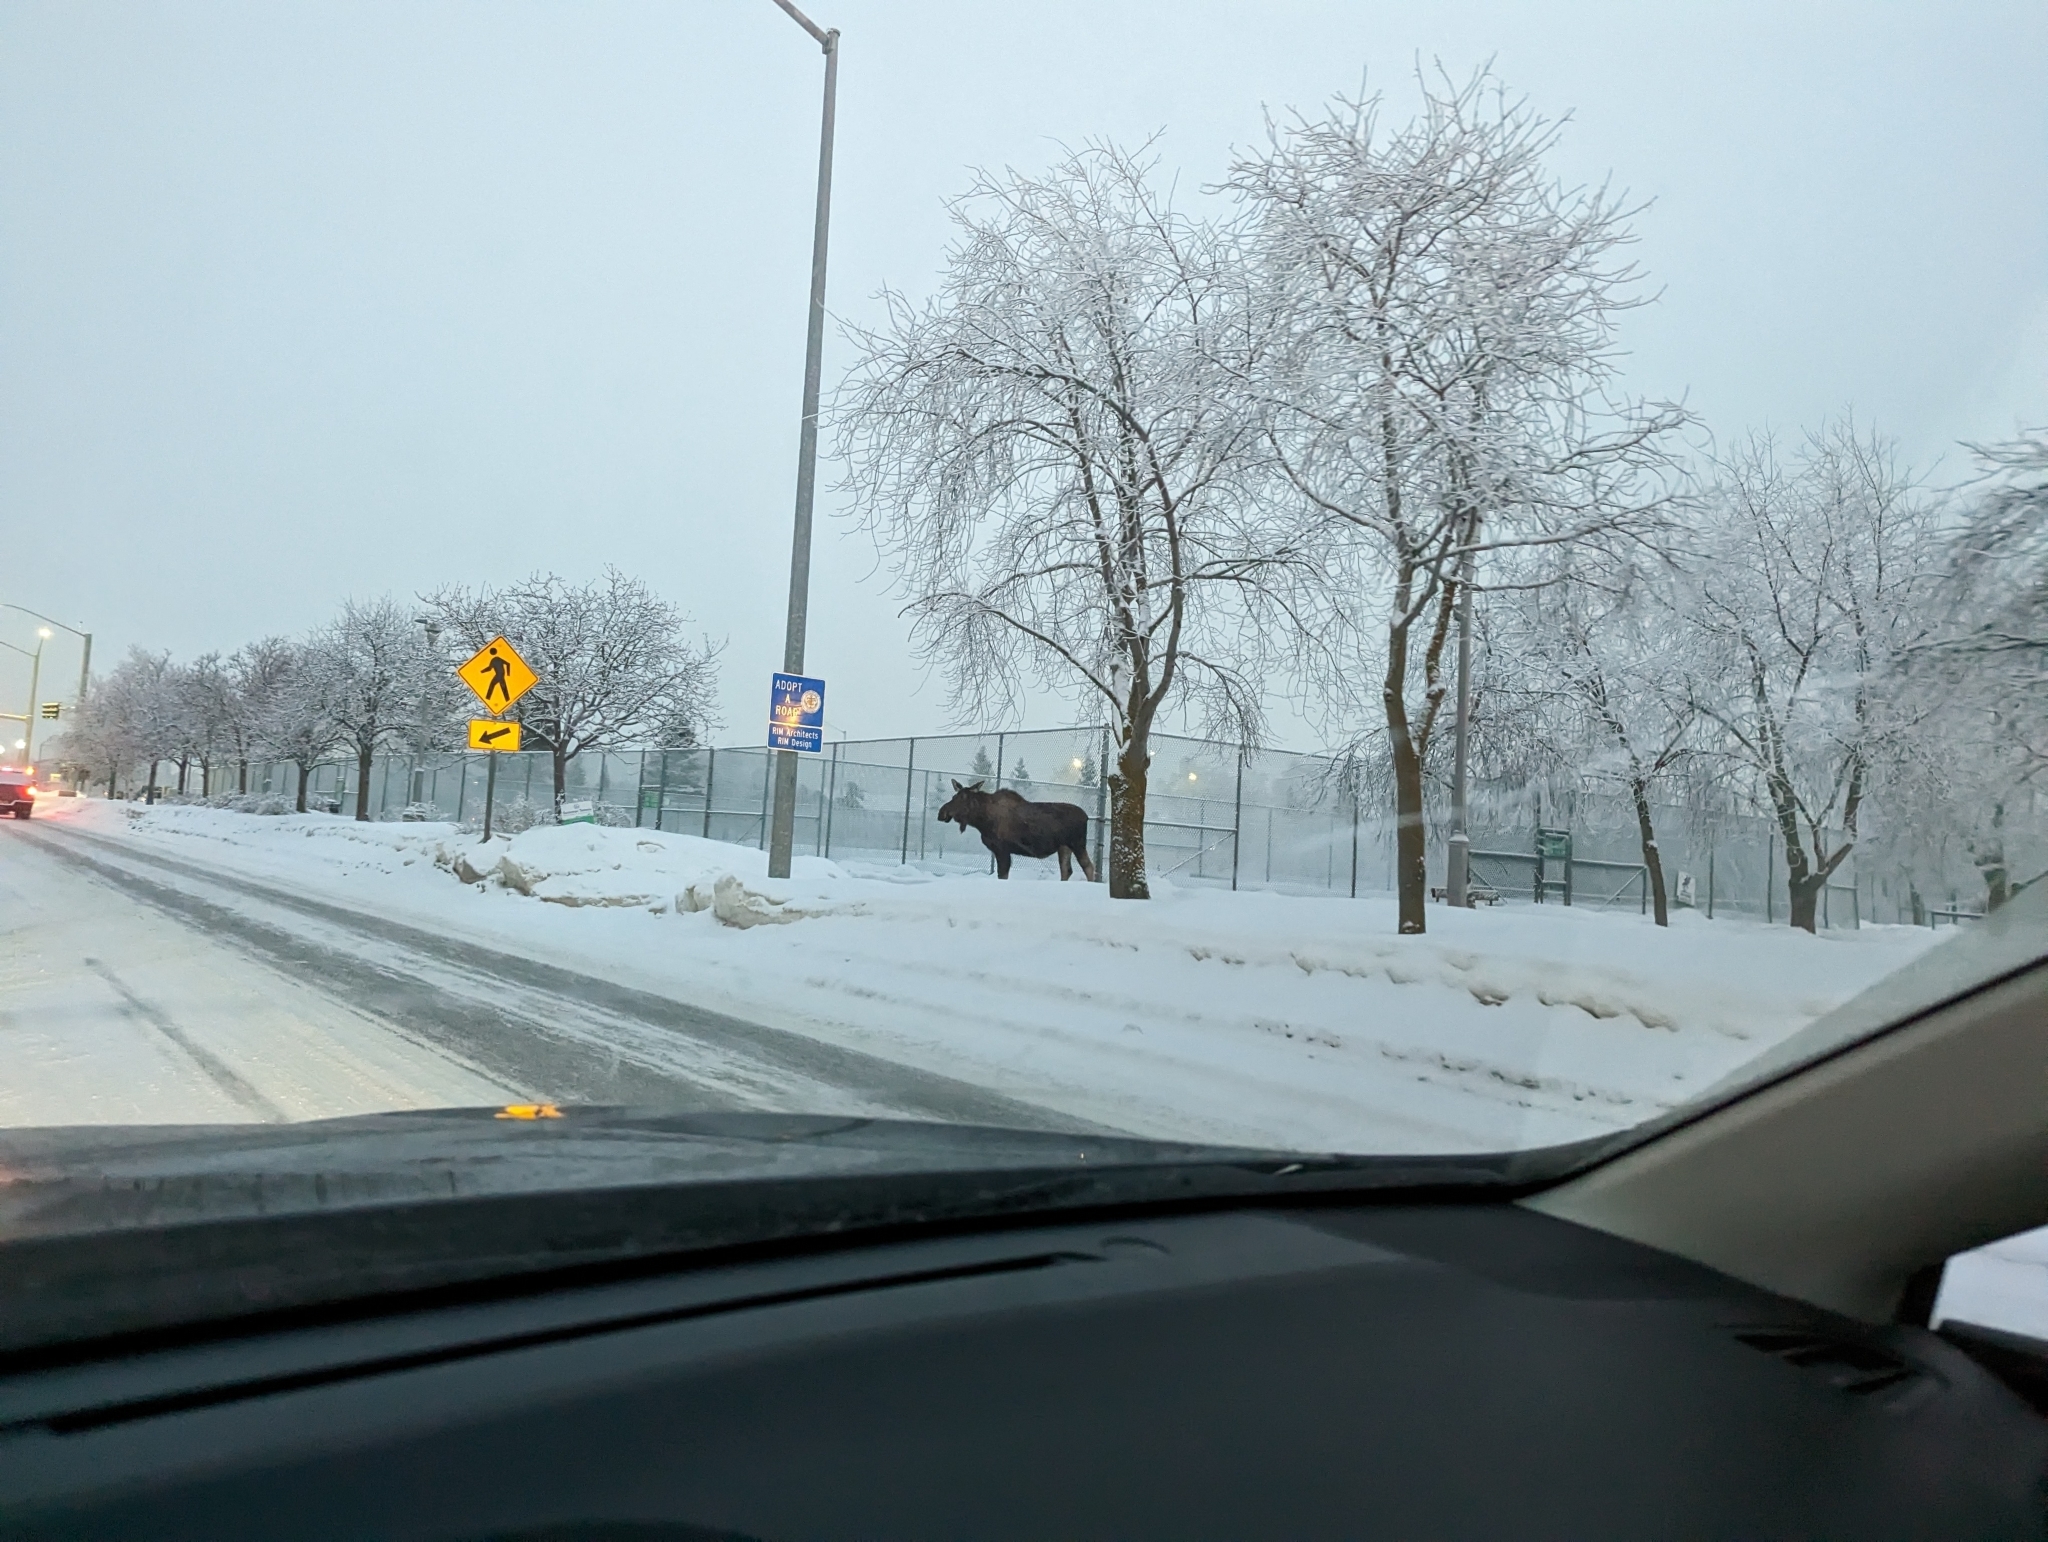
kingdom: Animalia
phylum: Chordata
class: Mammalia
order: Artiodactyla
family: Cervidae
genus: Alces
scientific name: Alces alces
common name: Moose
